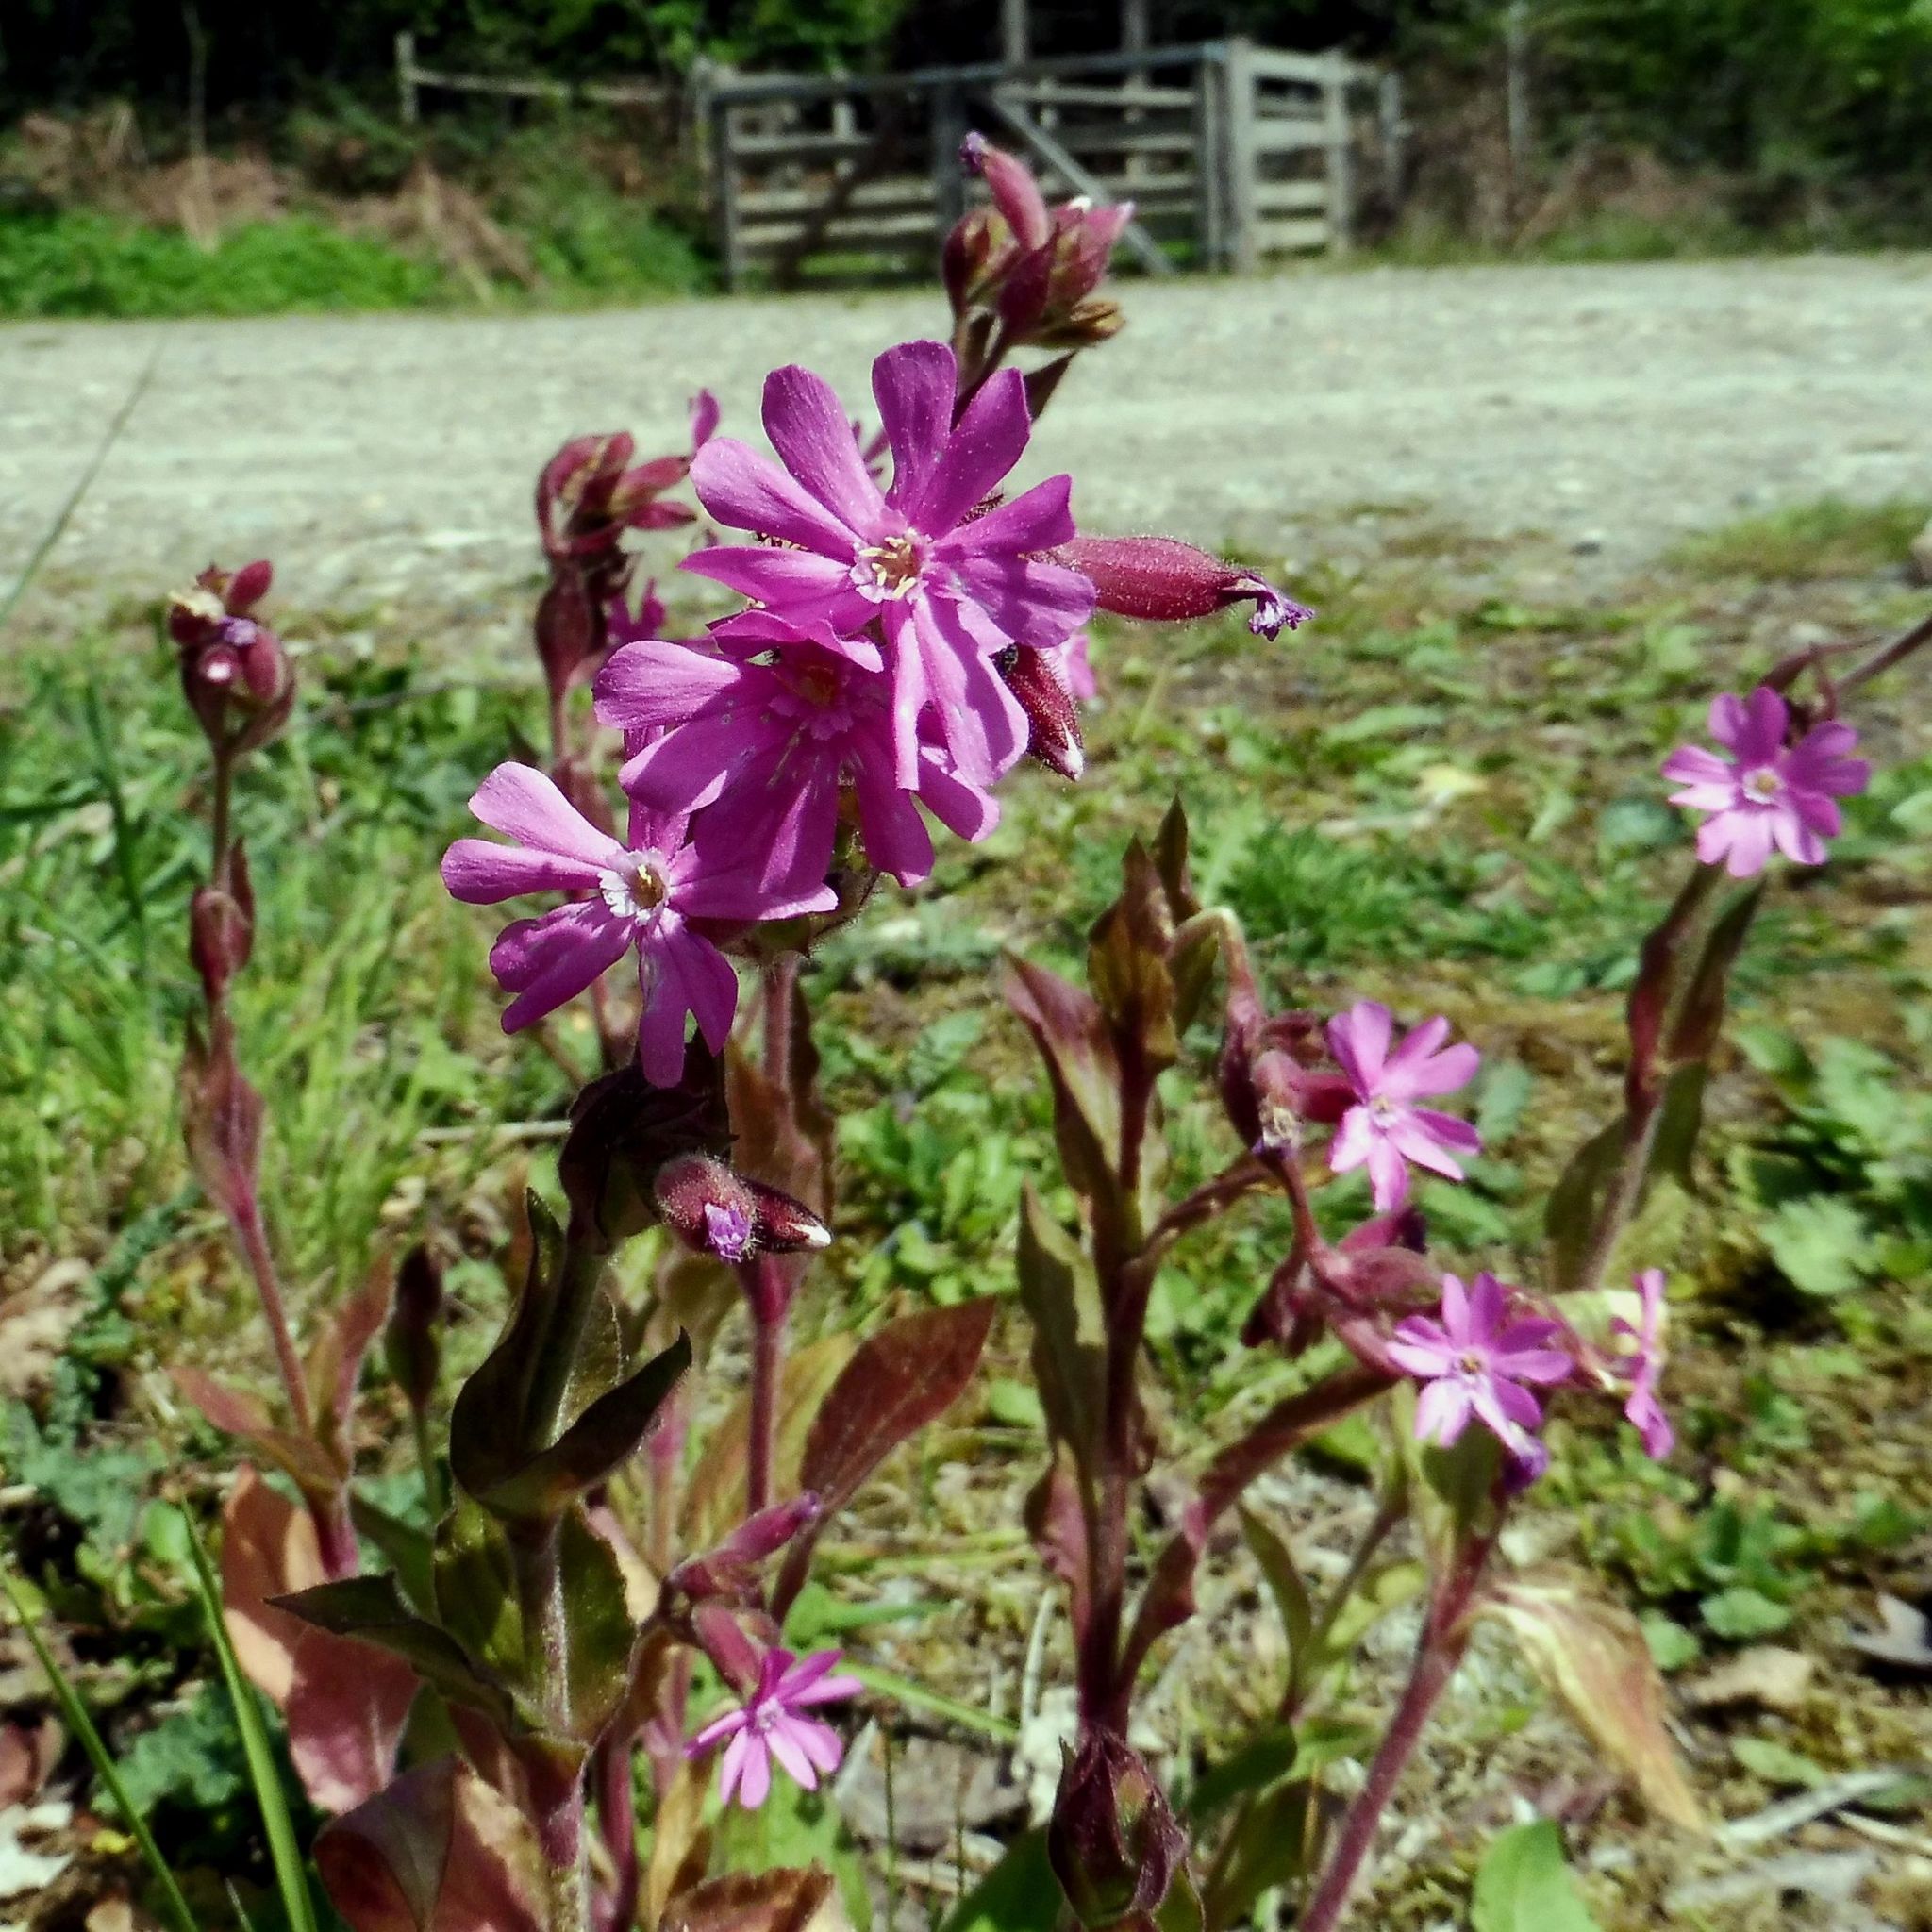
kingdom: Plantae
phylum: Tracheophyta
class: Magnoliopsida
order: Caryophyllales
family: Caryophyllaceae
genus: Silene
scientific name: Silene dioica
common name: Red campion
